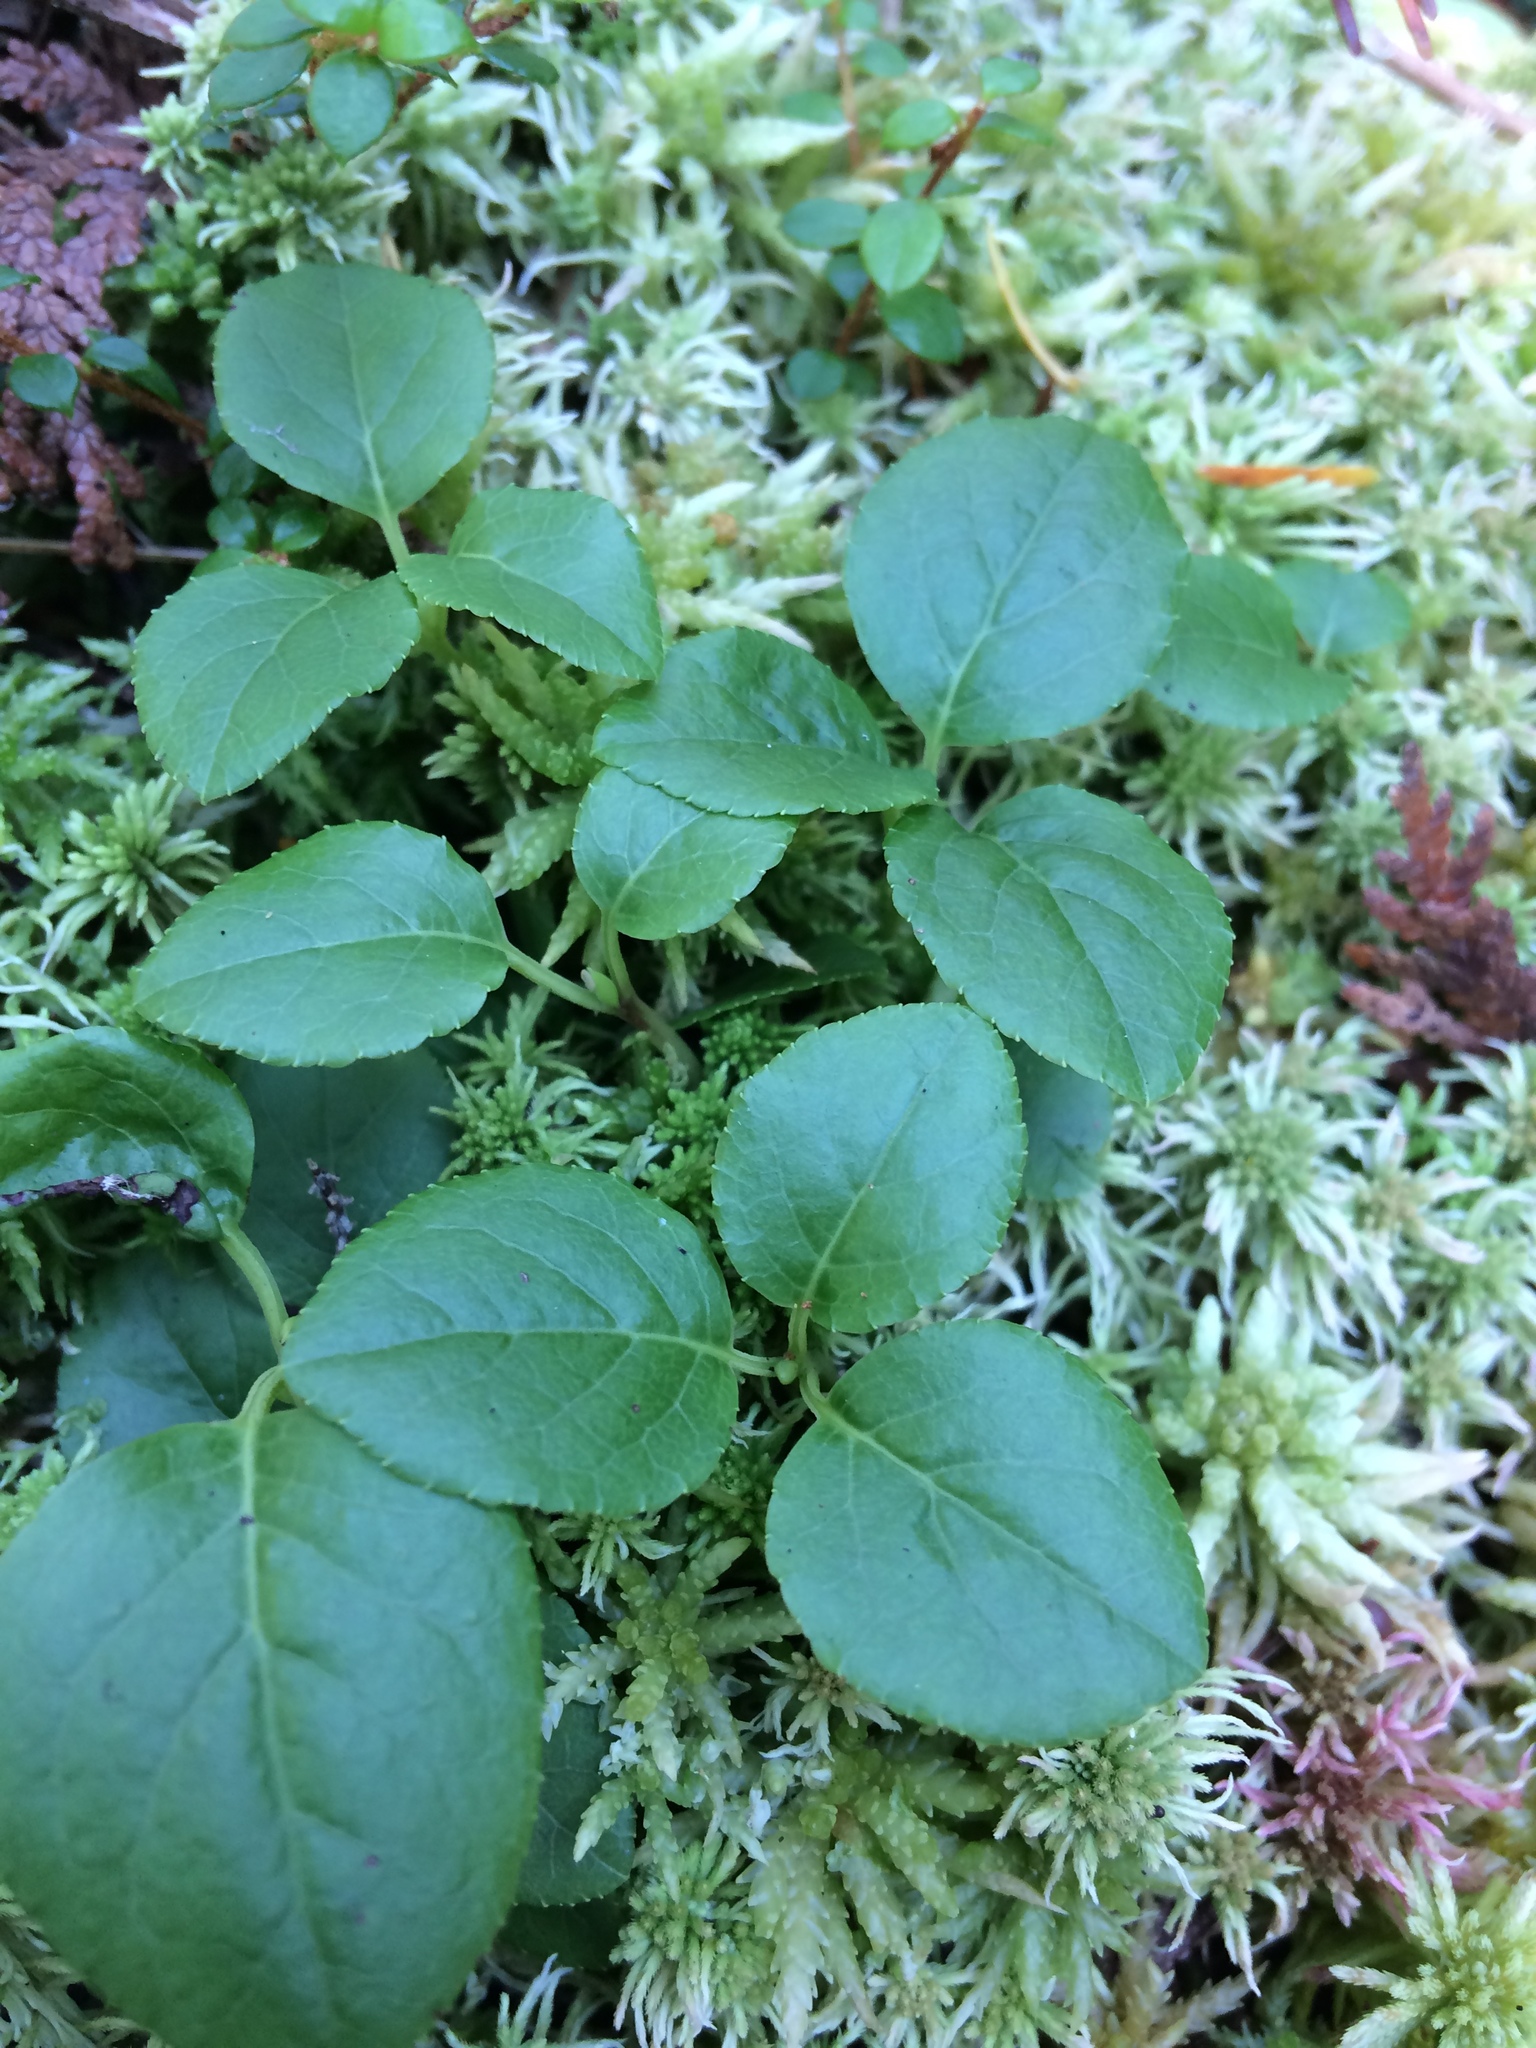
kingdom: Plantae
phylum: Tracheophyta
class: Magnoliopsida
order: Ericales
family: Ericaceae
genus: Orthilia
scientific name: Orthilia secunda
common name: One-sided orthilia
